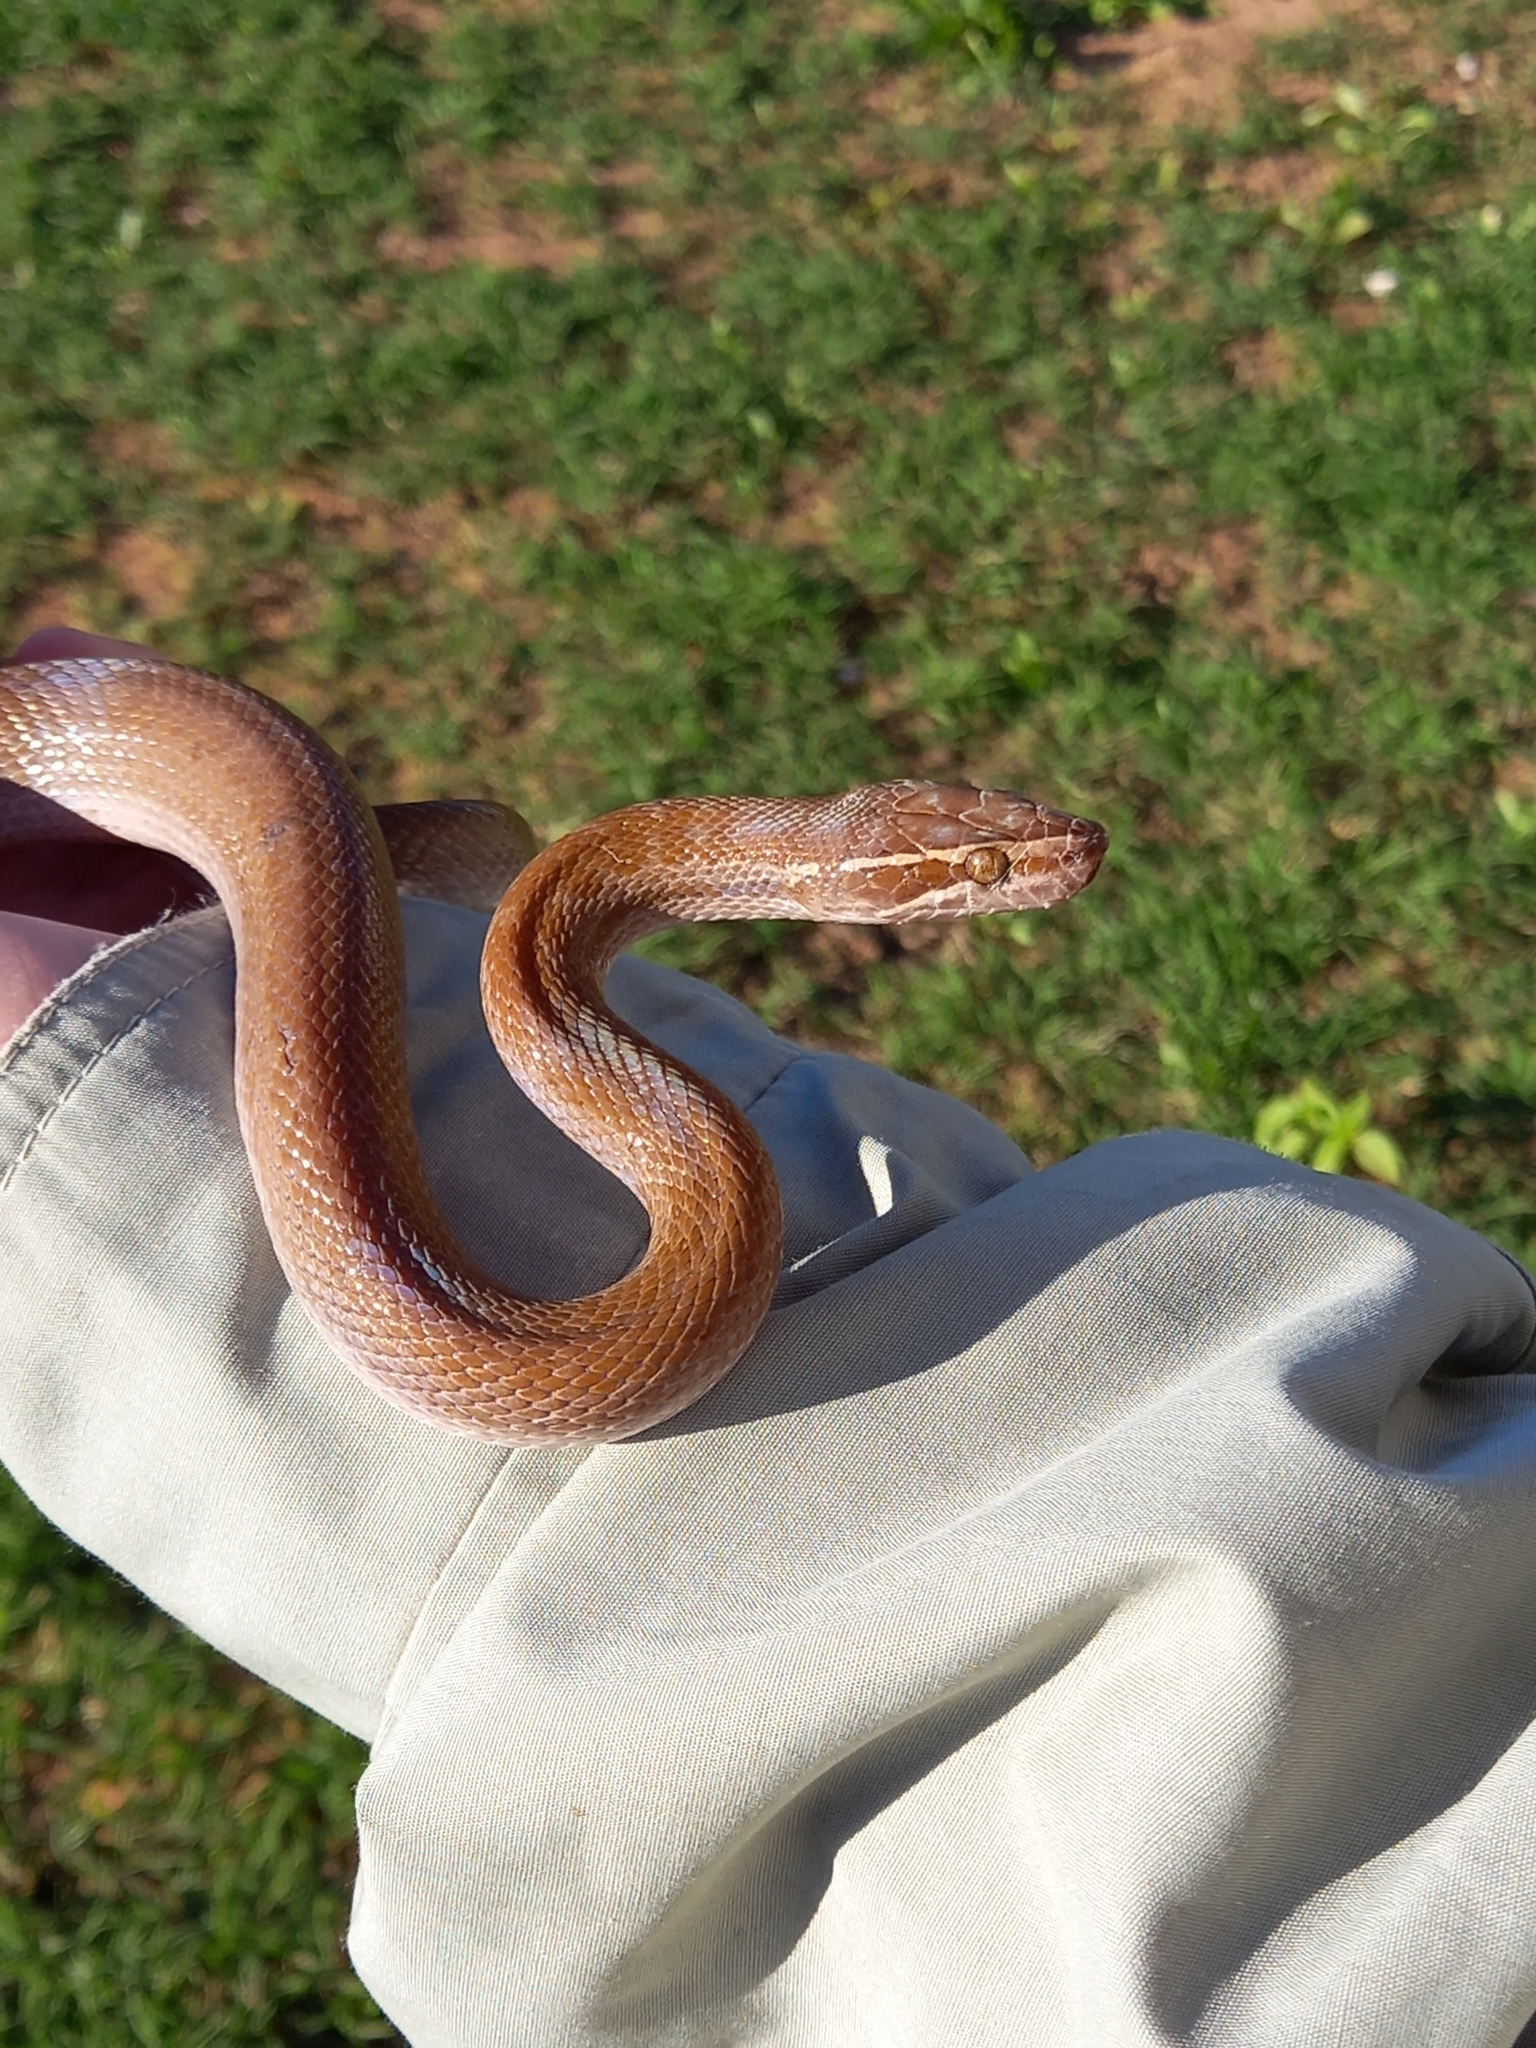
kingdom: Animalia
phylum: Chordata
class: Squamata
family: Lamprophiidae
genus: Boaedon
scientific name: Boaedon capensis
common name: Brown house snake
